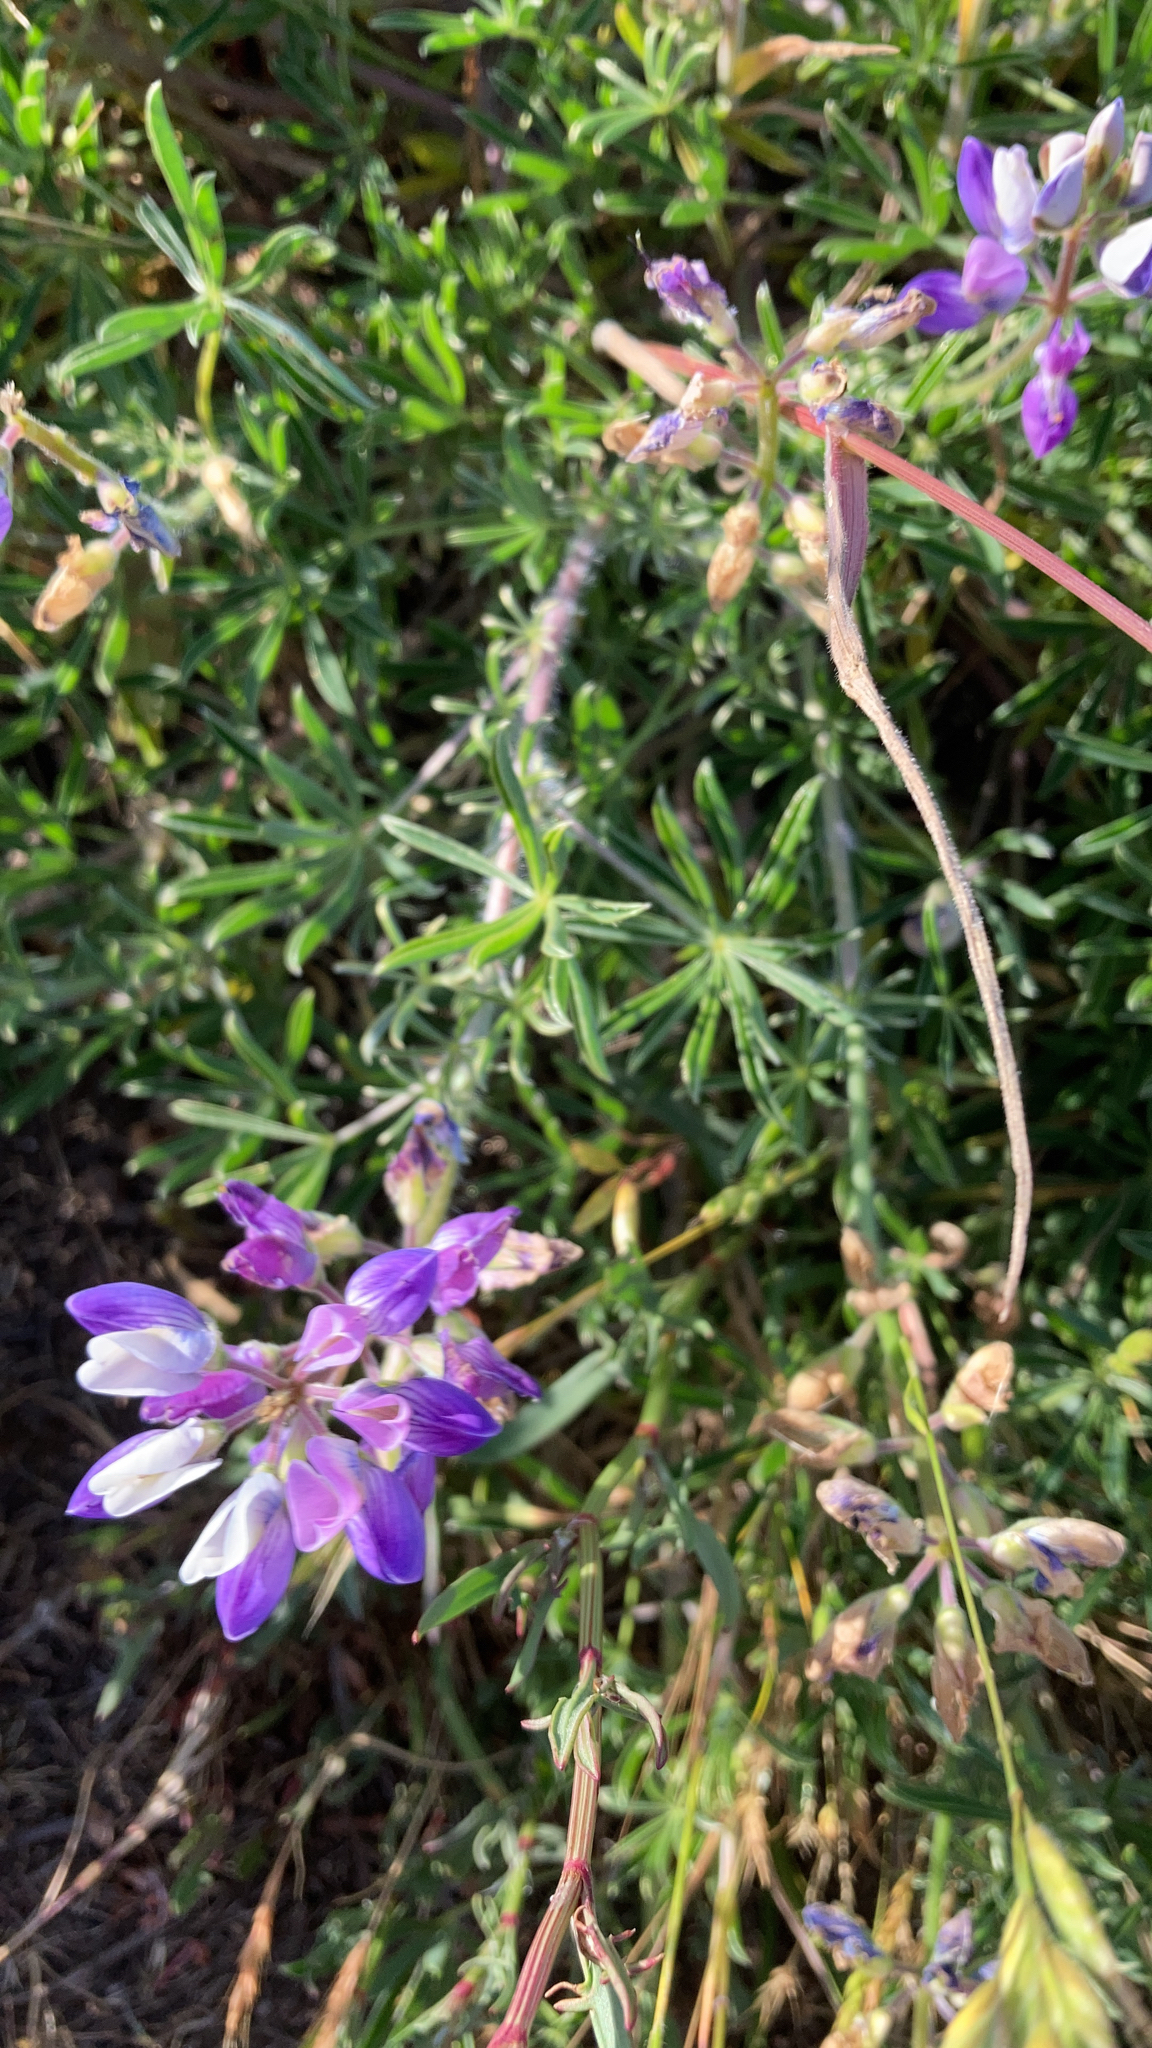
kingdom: Plantae
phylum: Tracheophyta
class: Magnoliopsida
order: Fabales
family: Fabaceae
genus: Lupinus
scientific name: Lupinus variicolor
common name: Lindley's varied lupine
